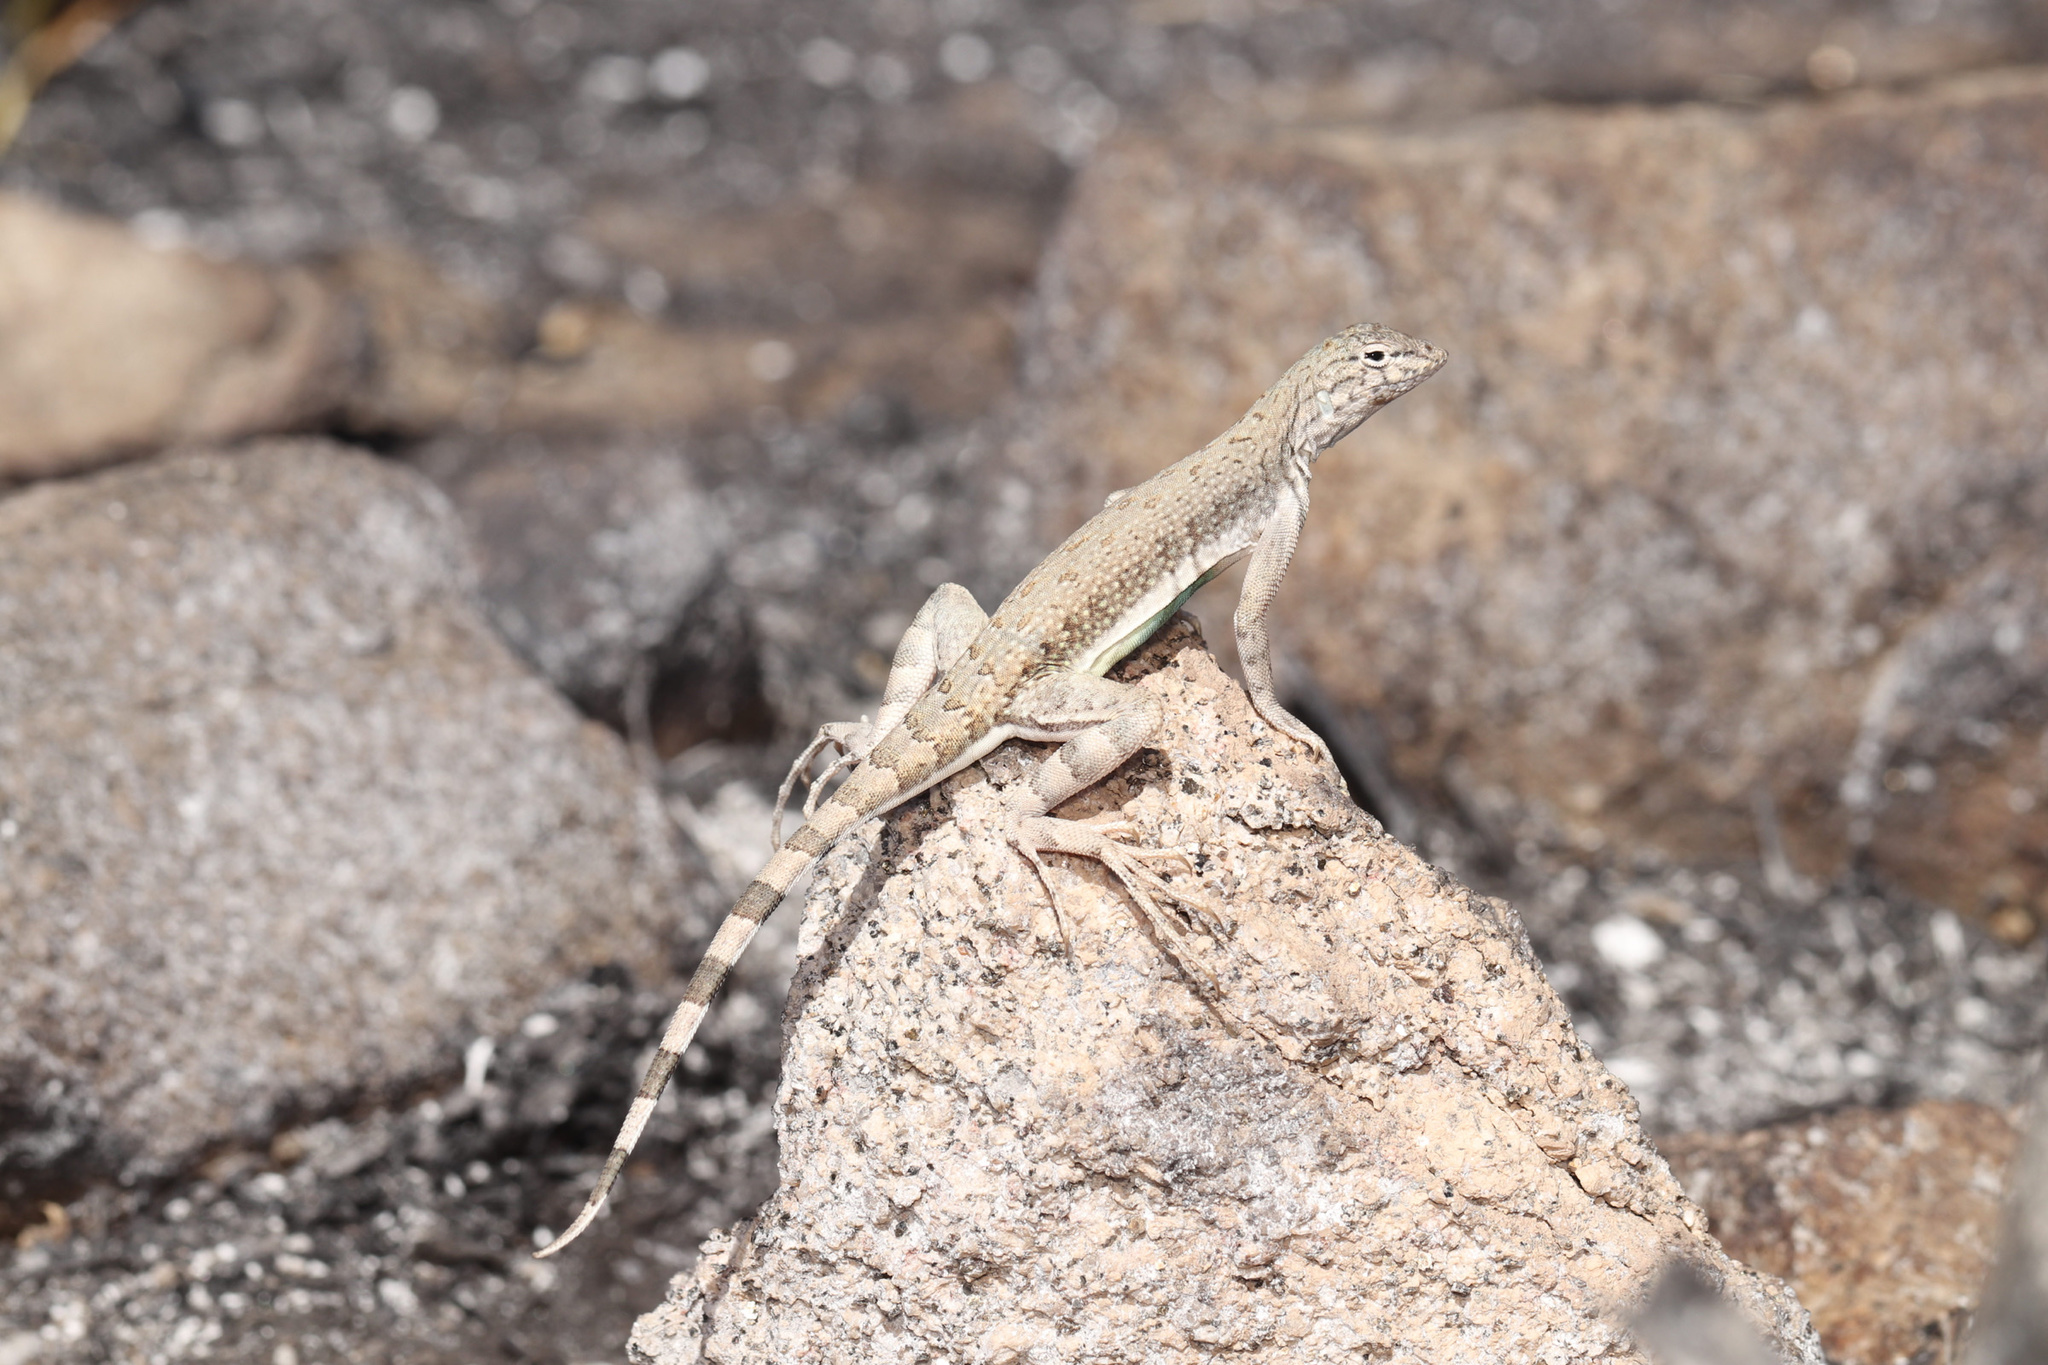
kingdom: Animalia
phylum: Chordata
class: Squamata
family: Phrynosomatidae
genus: Callisaurus
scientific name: Callisaurus draconoides
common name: Zebra-tailed lizard
